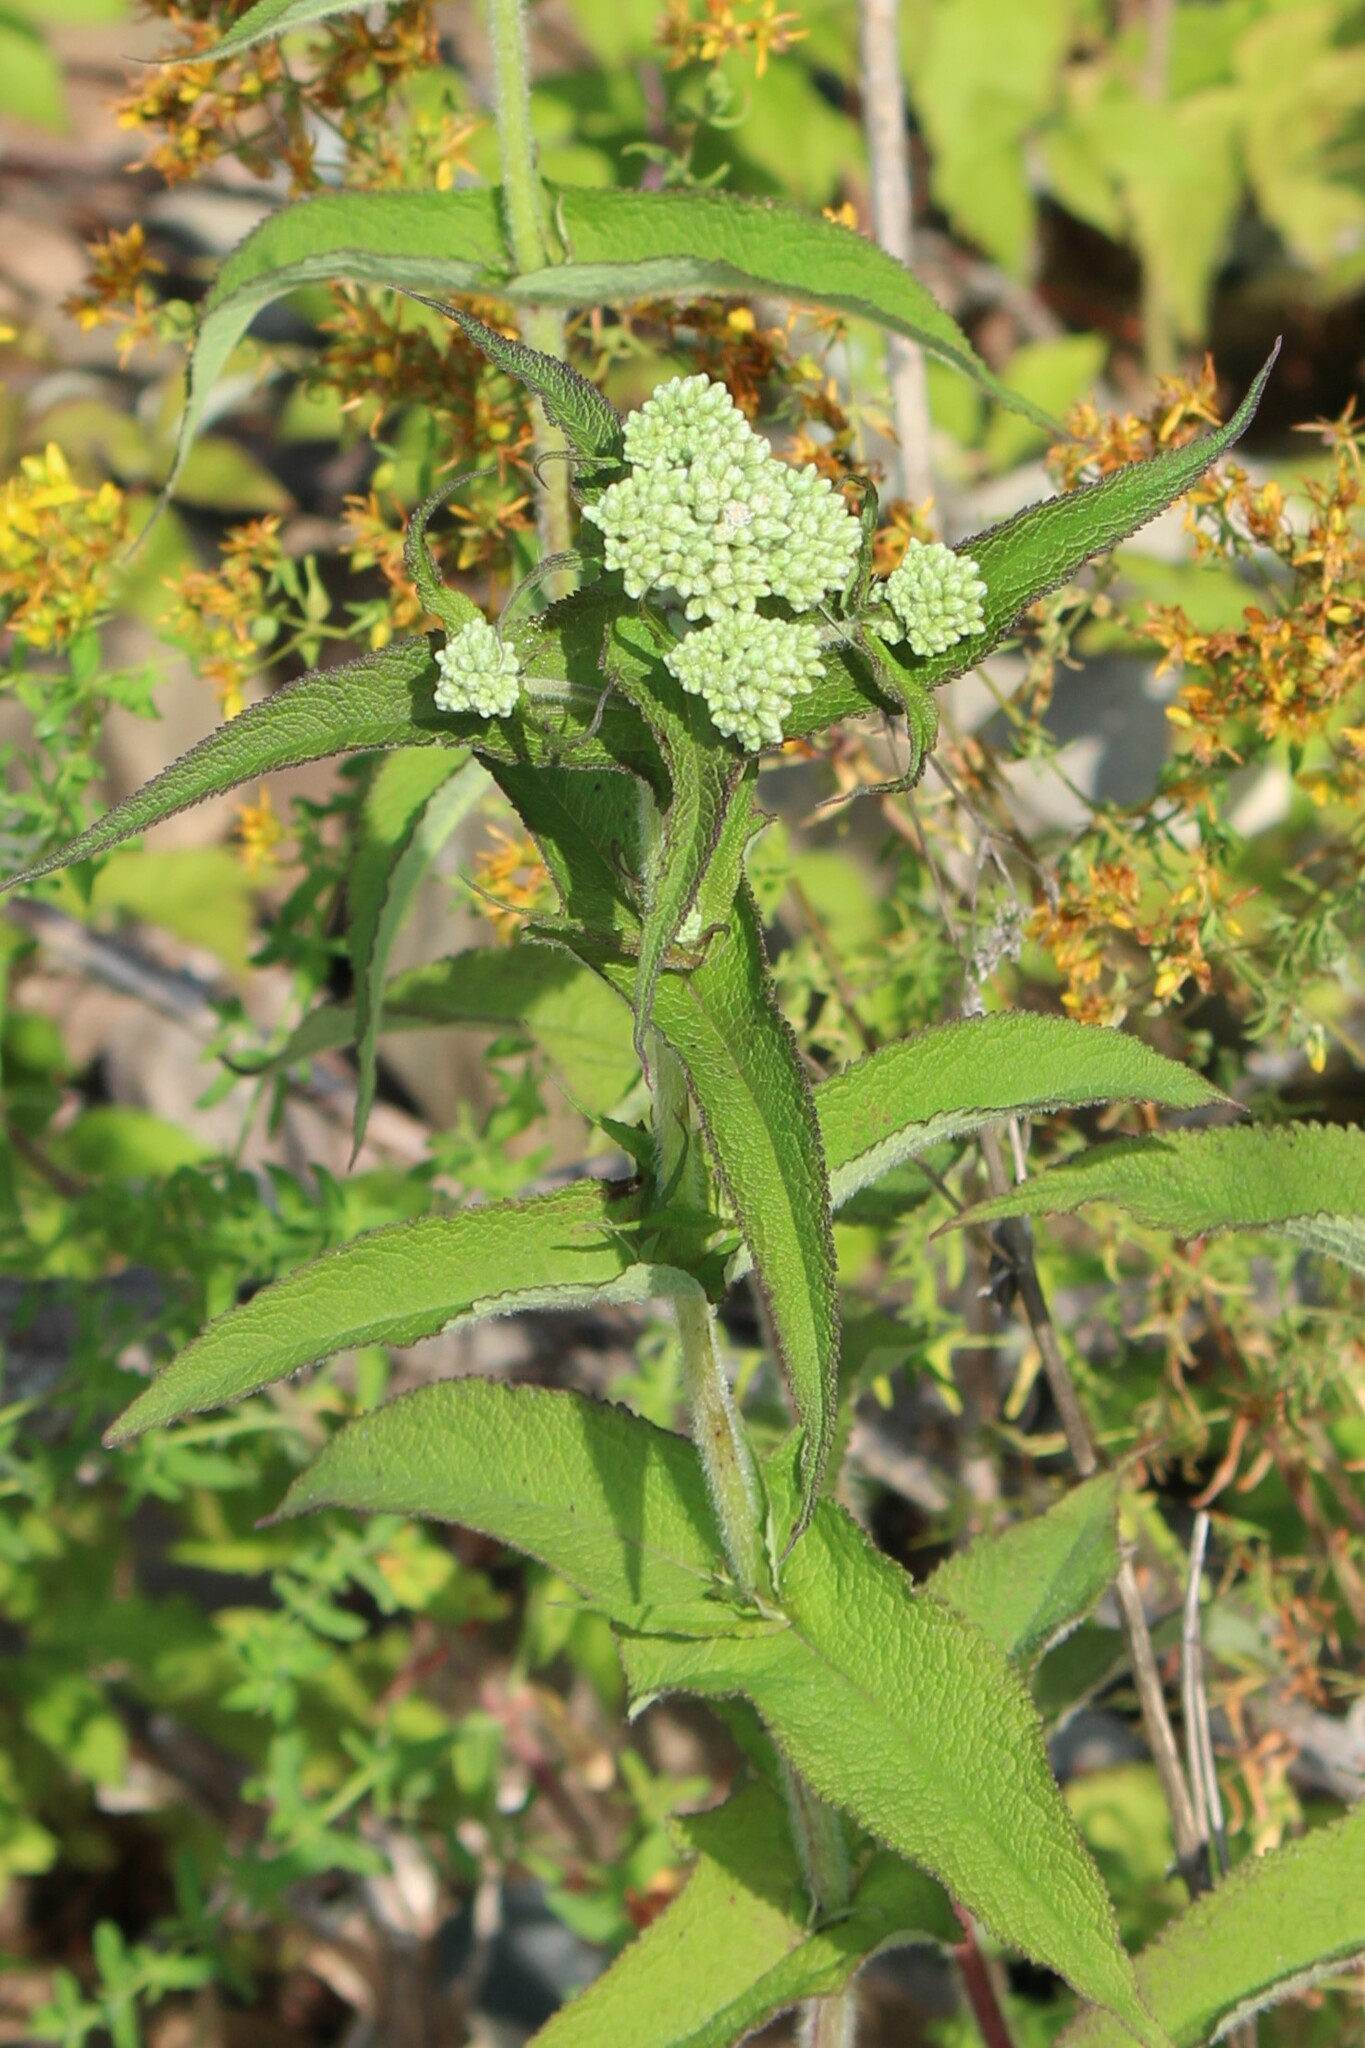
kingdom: Plantae
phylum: Tracheophyta
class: Magnoliopsida
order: Asterales
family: Asteraceae
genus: Eupatorium
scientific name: Eupatorium perfoliatum
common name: Boneset
